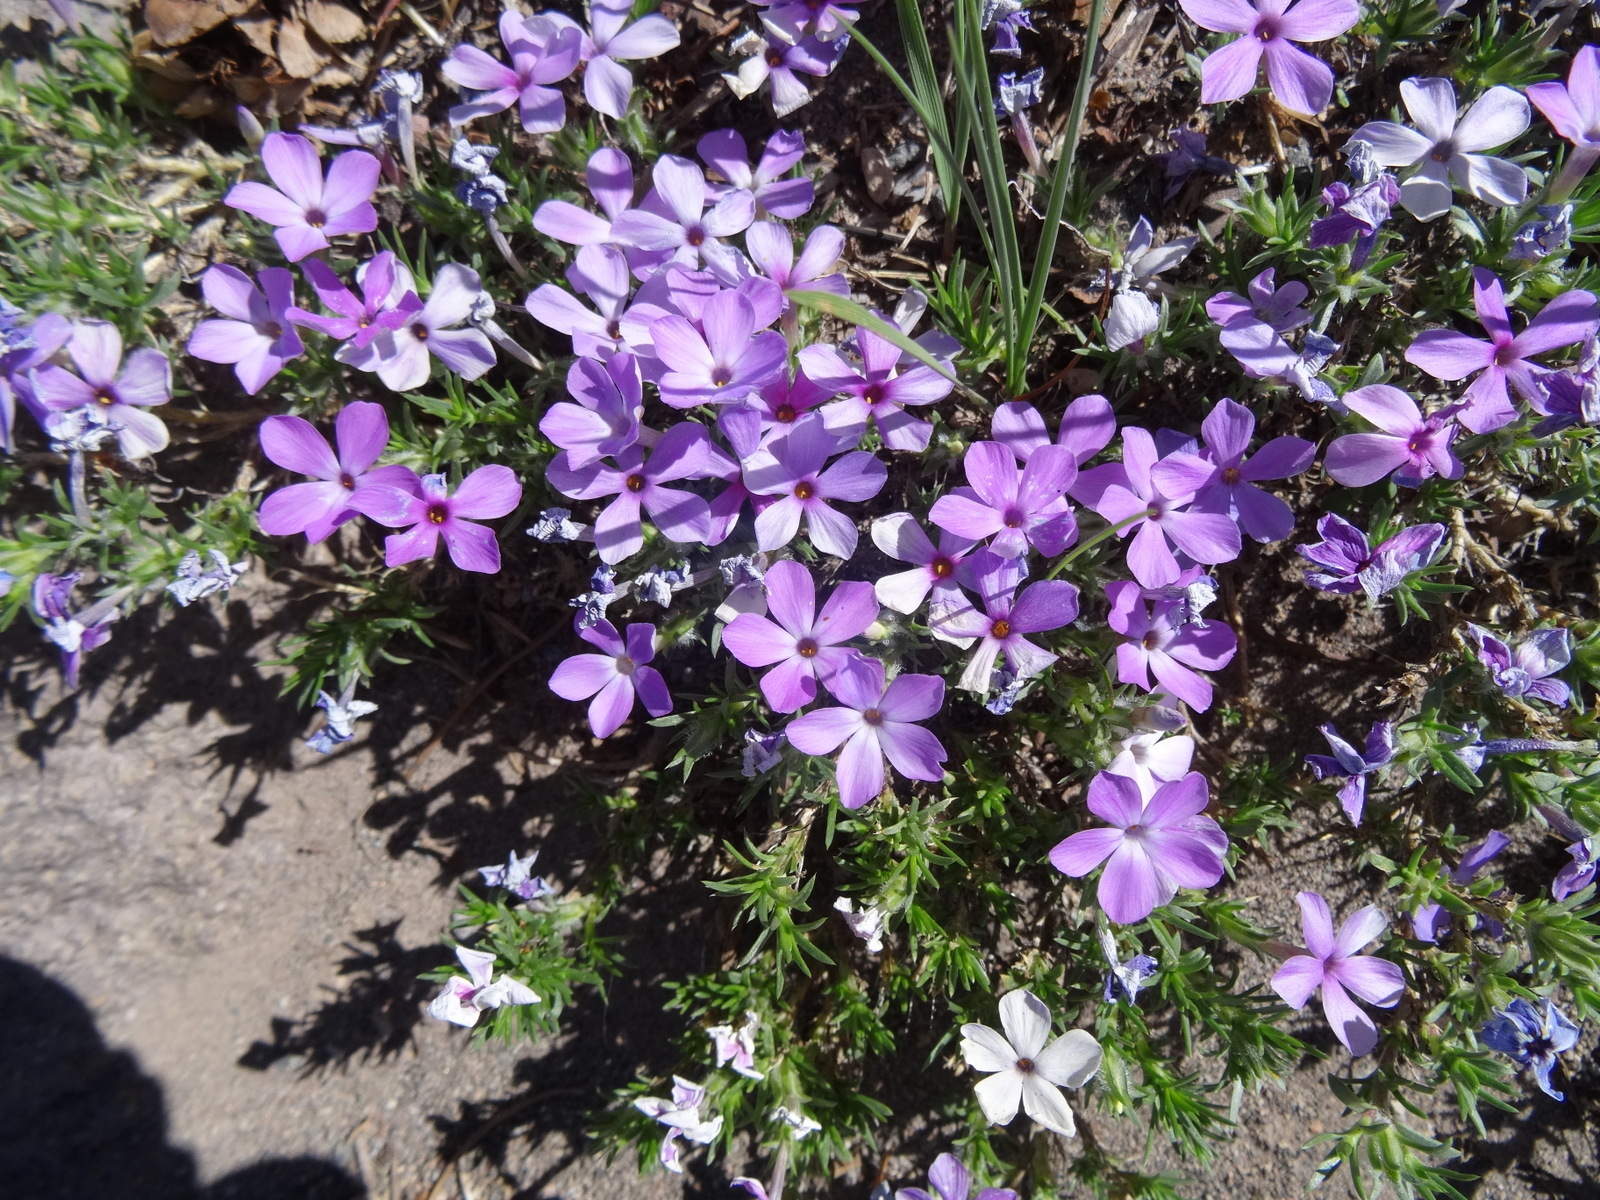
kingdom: Plantae
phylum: Tracheophyta
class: Magnoliopsida
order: Ericales
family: Polemoniaceae
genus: Phlox
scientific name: Phlox diffusa
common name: Mat phlox
